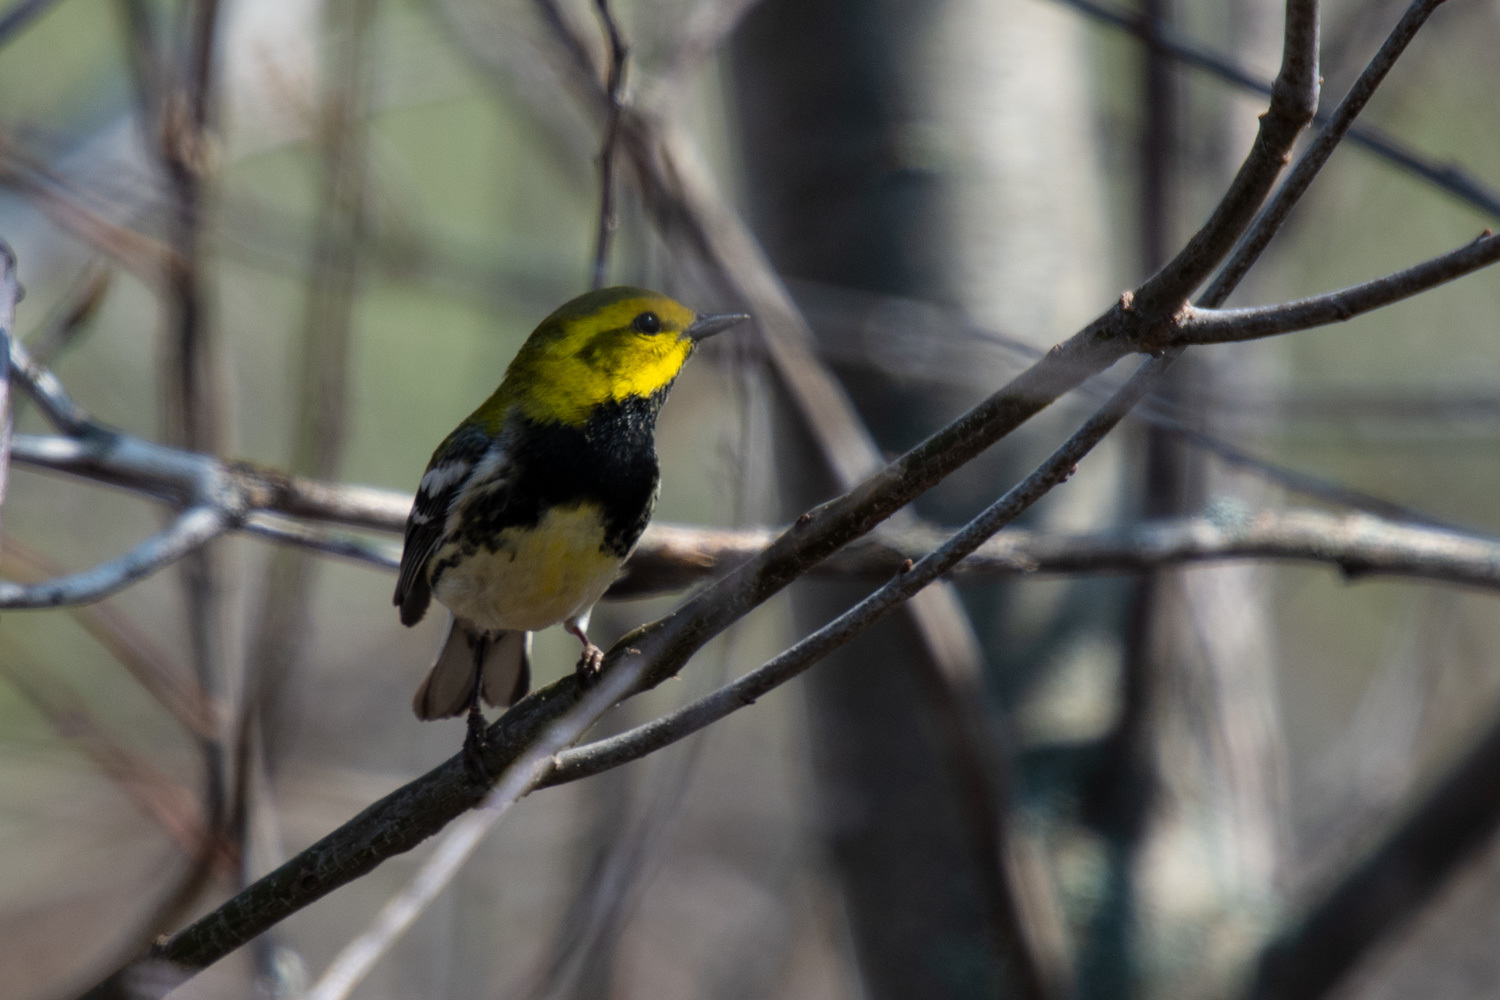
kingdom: Animalia
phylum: Chordata
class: Aves
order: Passeriformes
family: Parulidae
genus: Setophaga
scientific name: Setophaga virens
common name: Black-throated green warbler
